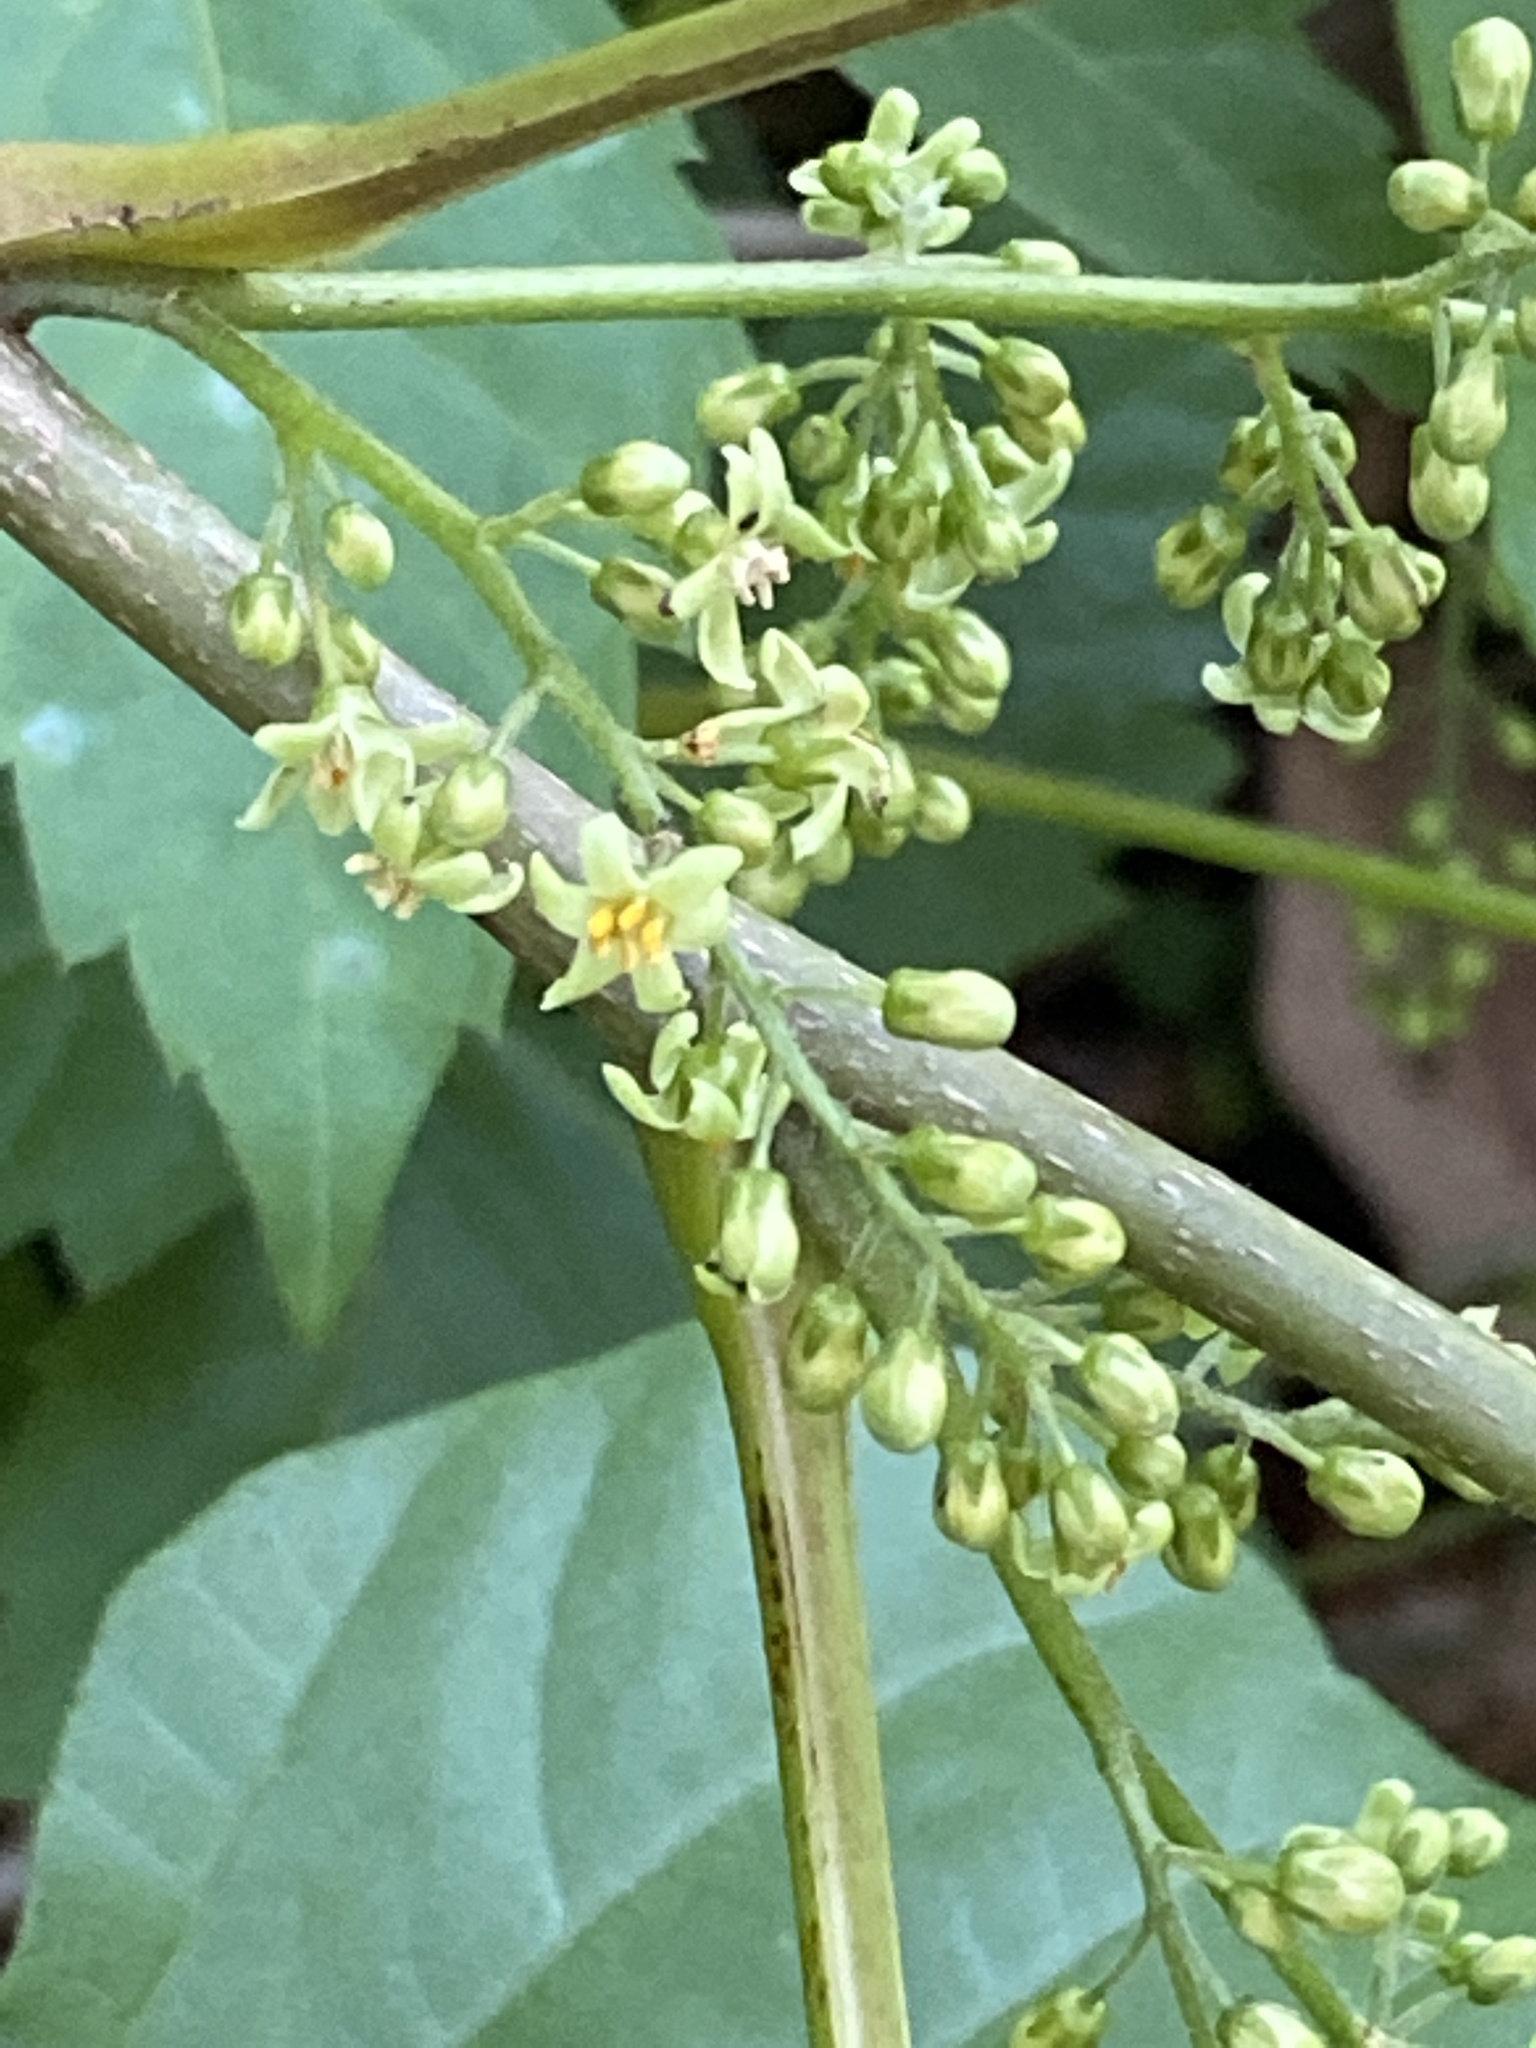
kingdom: Plantae
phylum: Tracheophyta
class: Magnoliopsida
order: Sapindales
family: Anacardiaceae
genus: Toxicodendron
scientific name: Toxicodendron radicans
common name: Poison ivy
